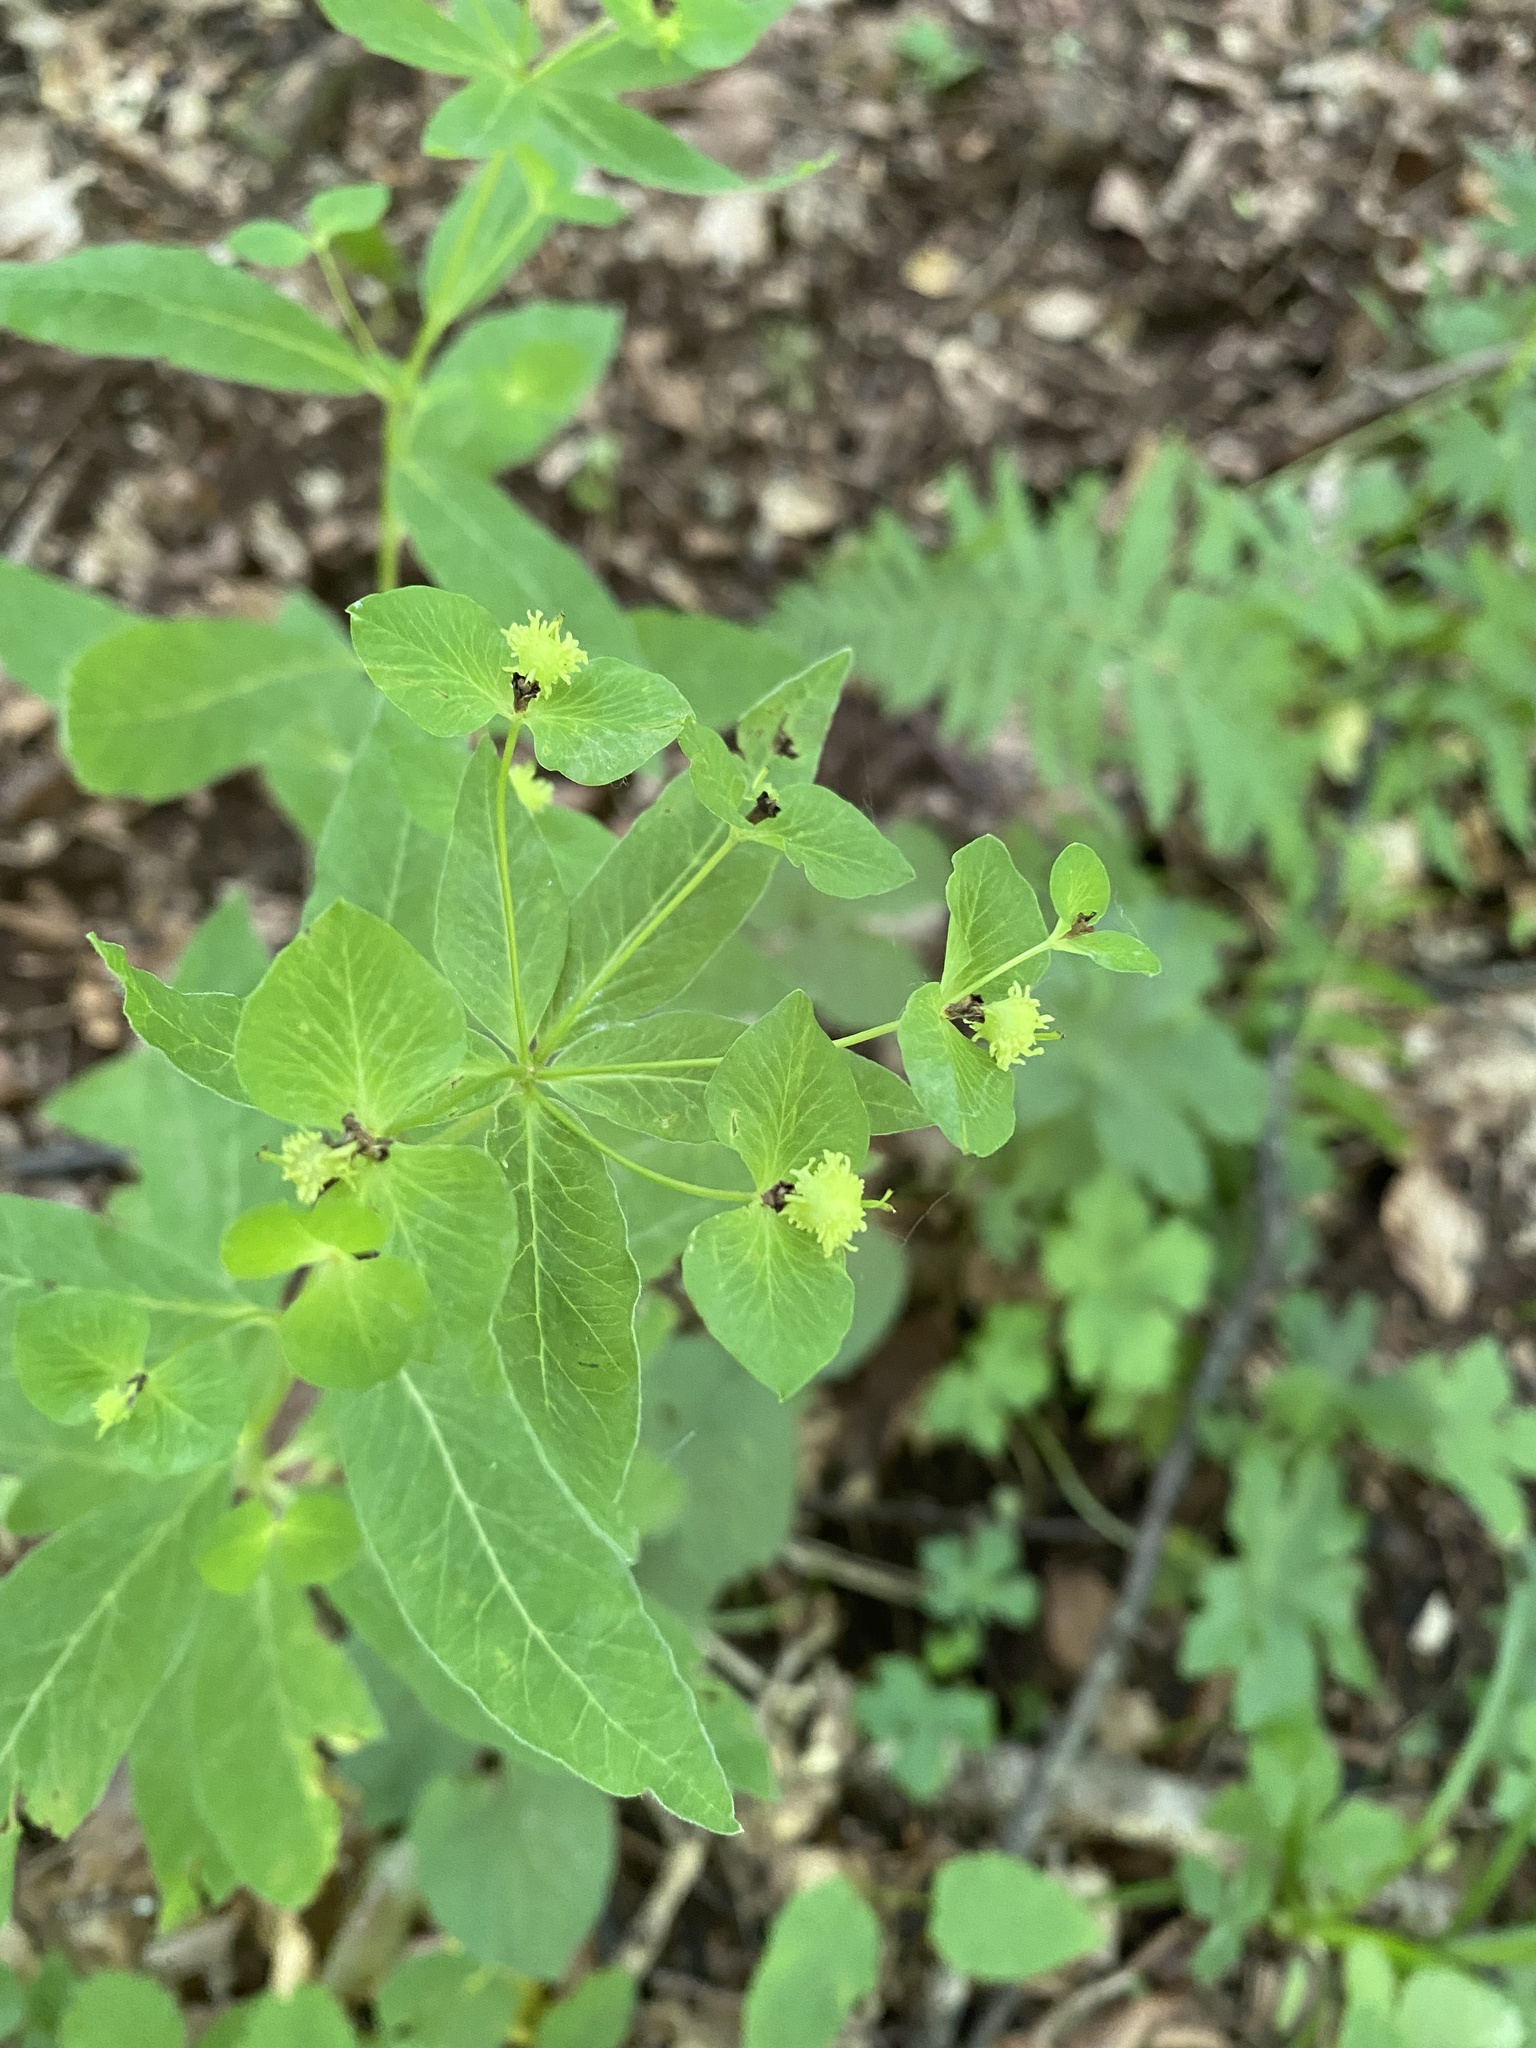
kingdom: Plantae
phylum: Tracheophyta
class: Magnoliopsida
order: Malpighiales
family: Euphorbiaceae
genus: Euphorbia
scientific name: Euphorbia squamosa
